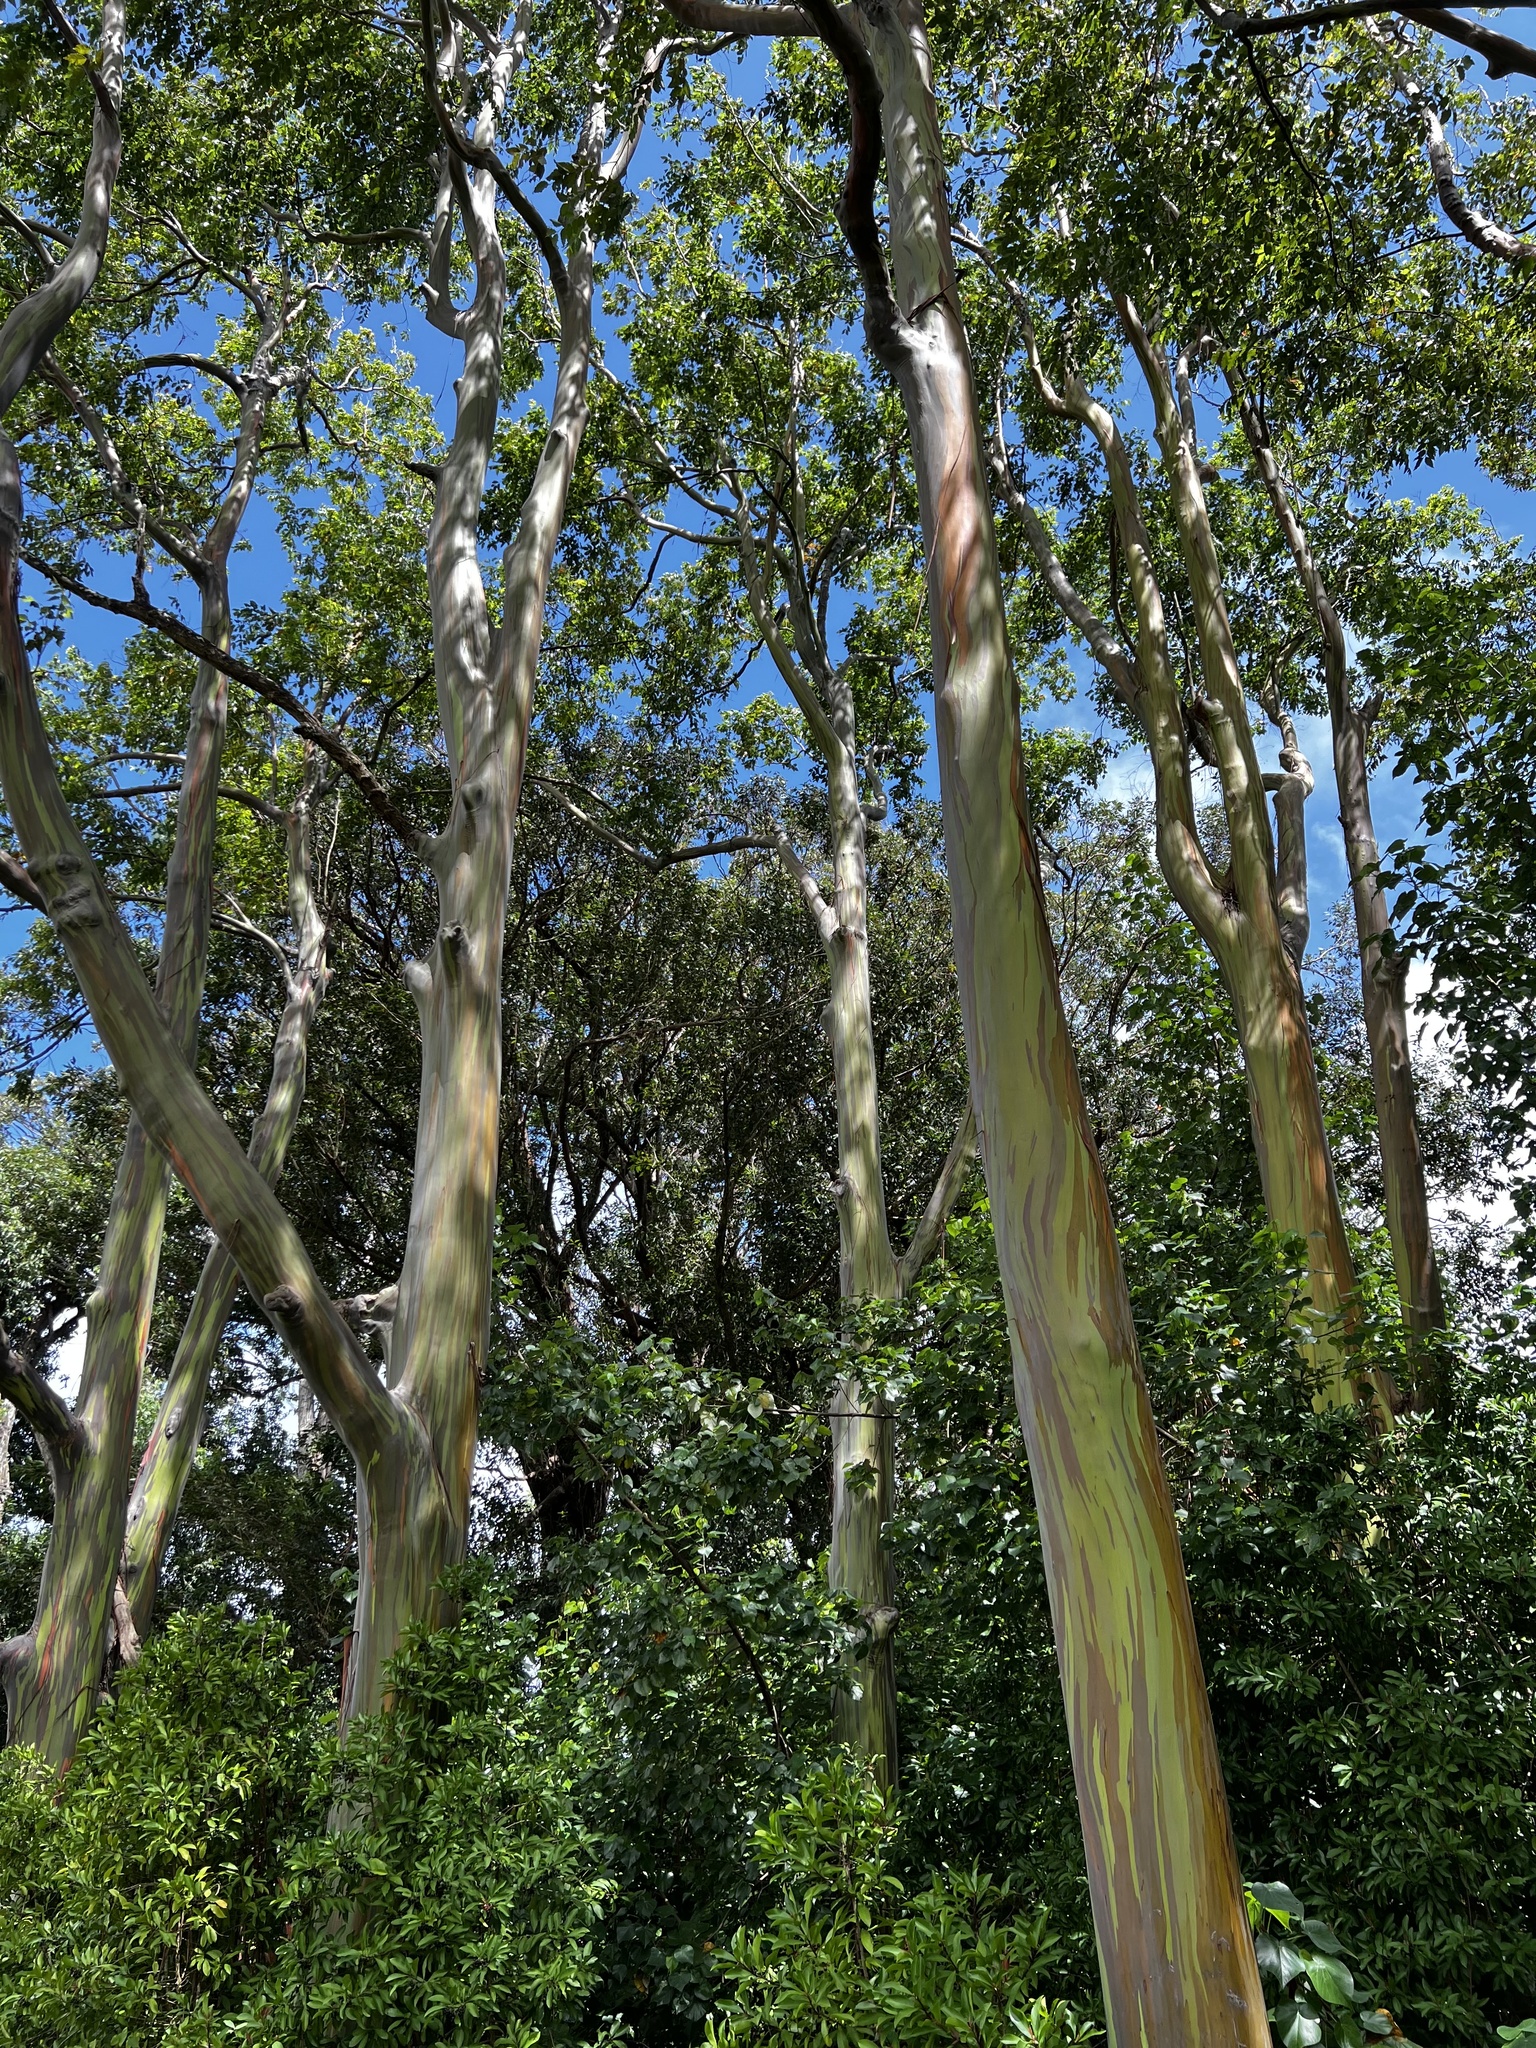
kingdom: Plantae
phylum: Tracheophyta
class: Magnoliopsida
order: Myrtales
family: Myrtaceae
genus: Eucalyptus
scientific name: Eucalyptus deglupta
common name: Mindanao gum
